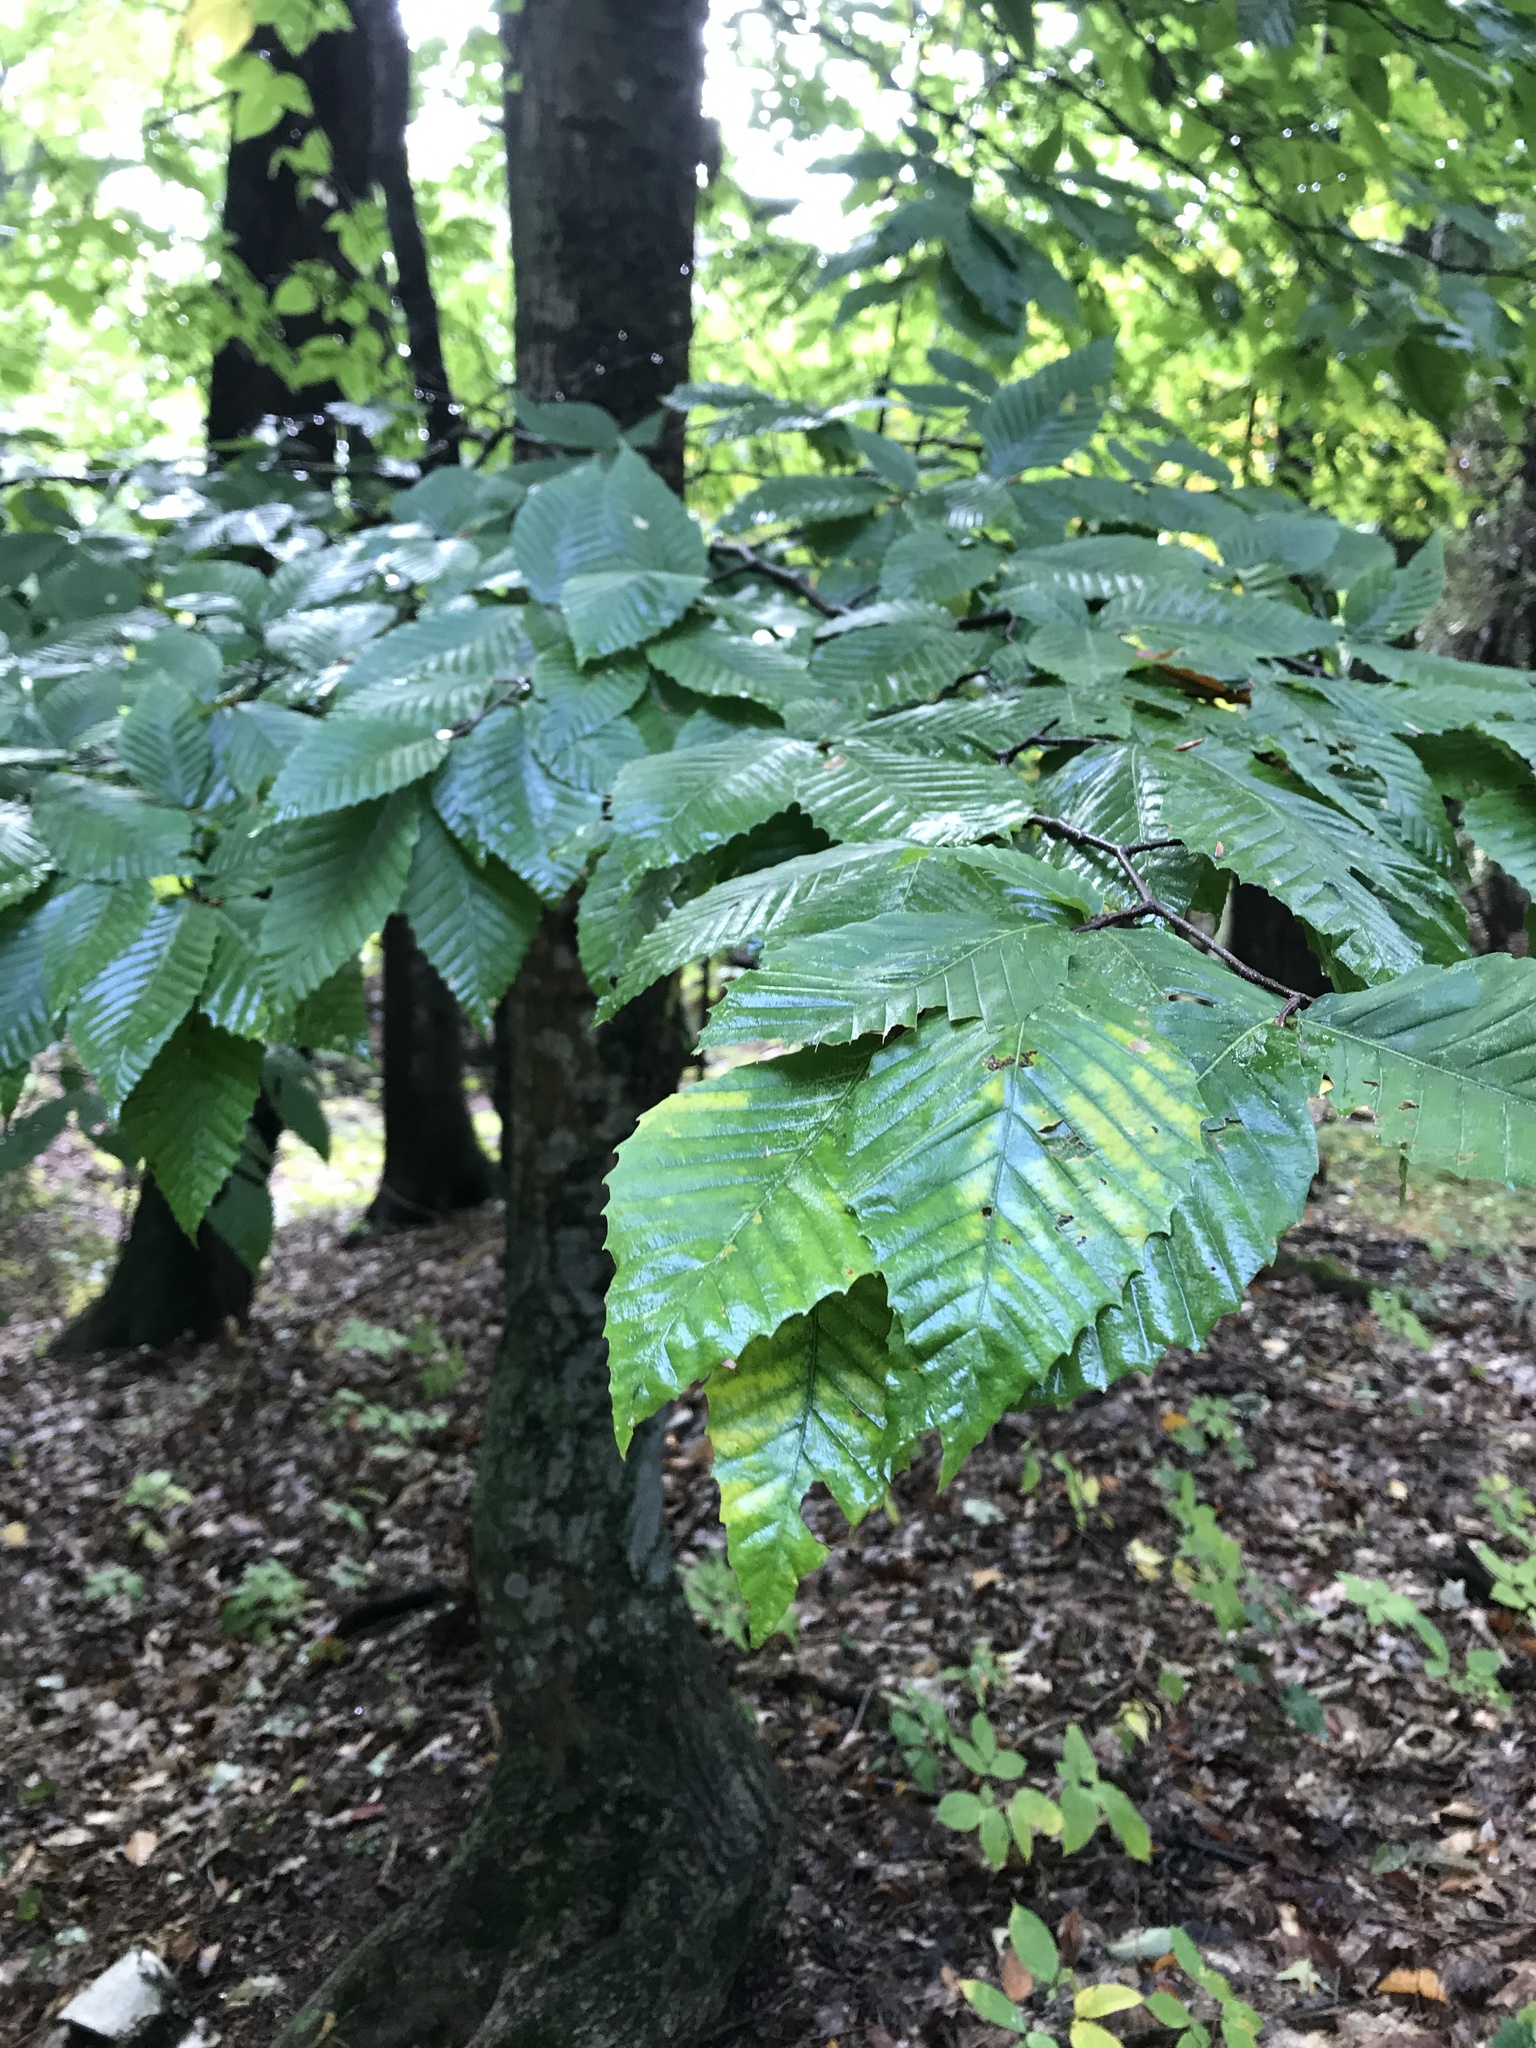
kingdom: Plantae
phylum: Tracheophyta
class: Magnoliopsida
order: Fagales
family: Fagaceae
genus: Fagus
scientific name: Fagus grandifolia
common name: American beech
